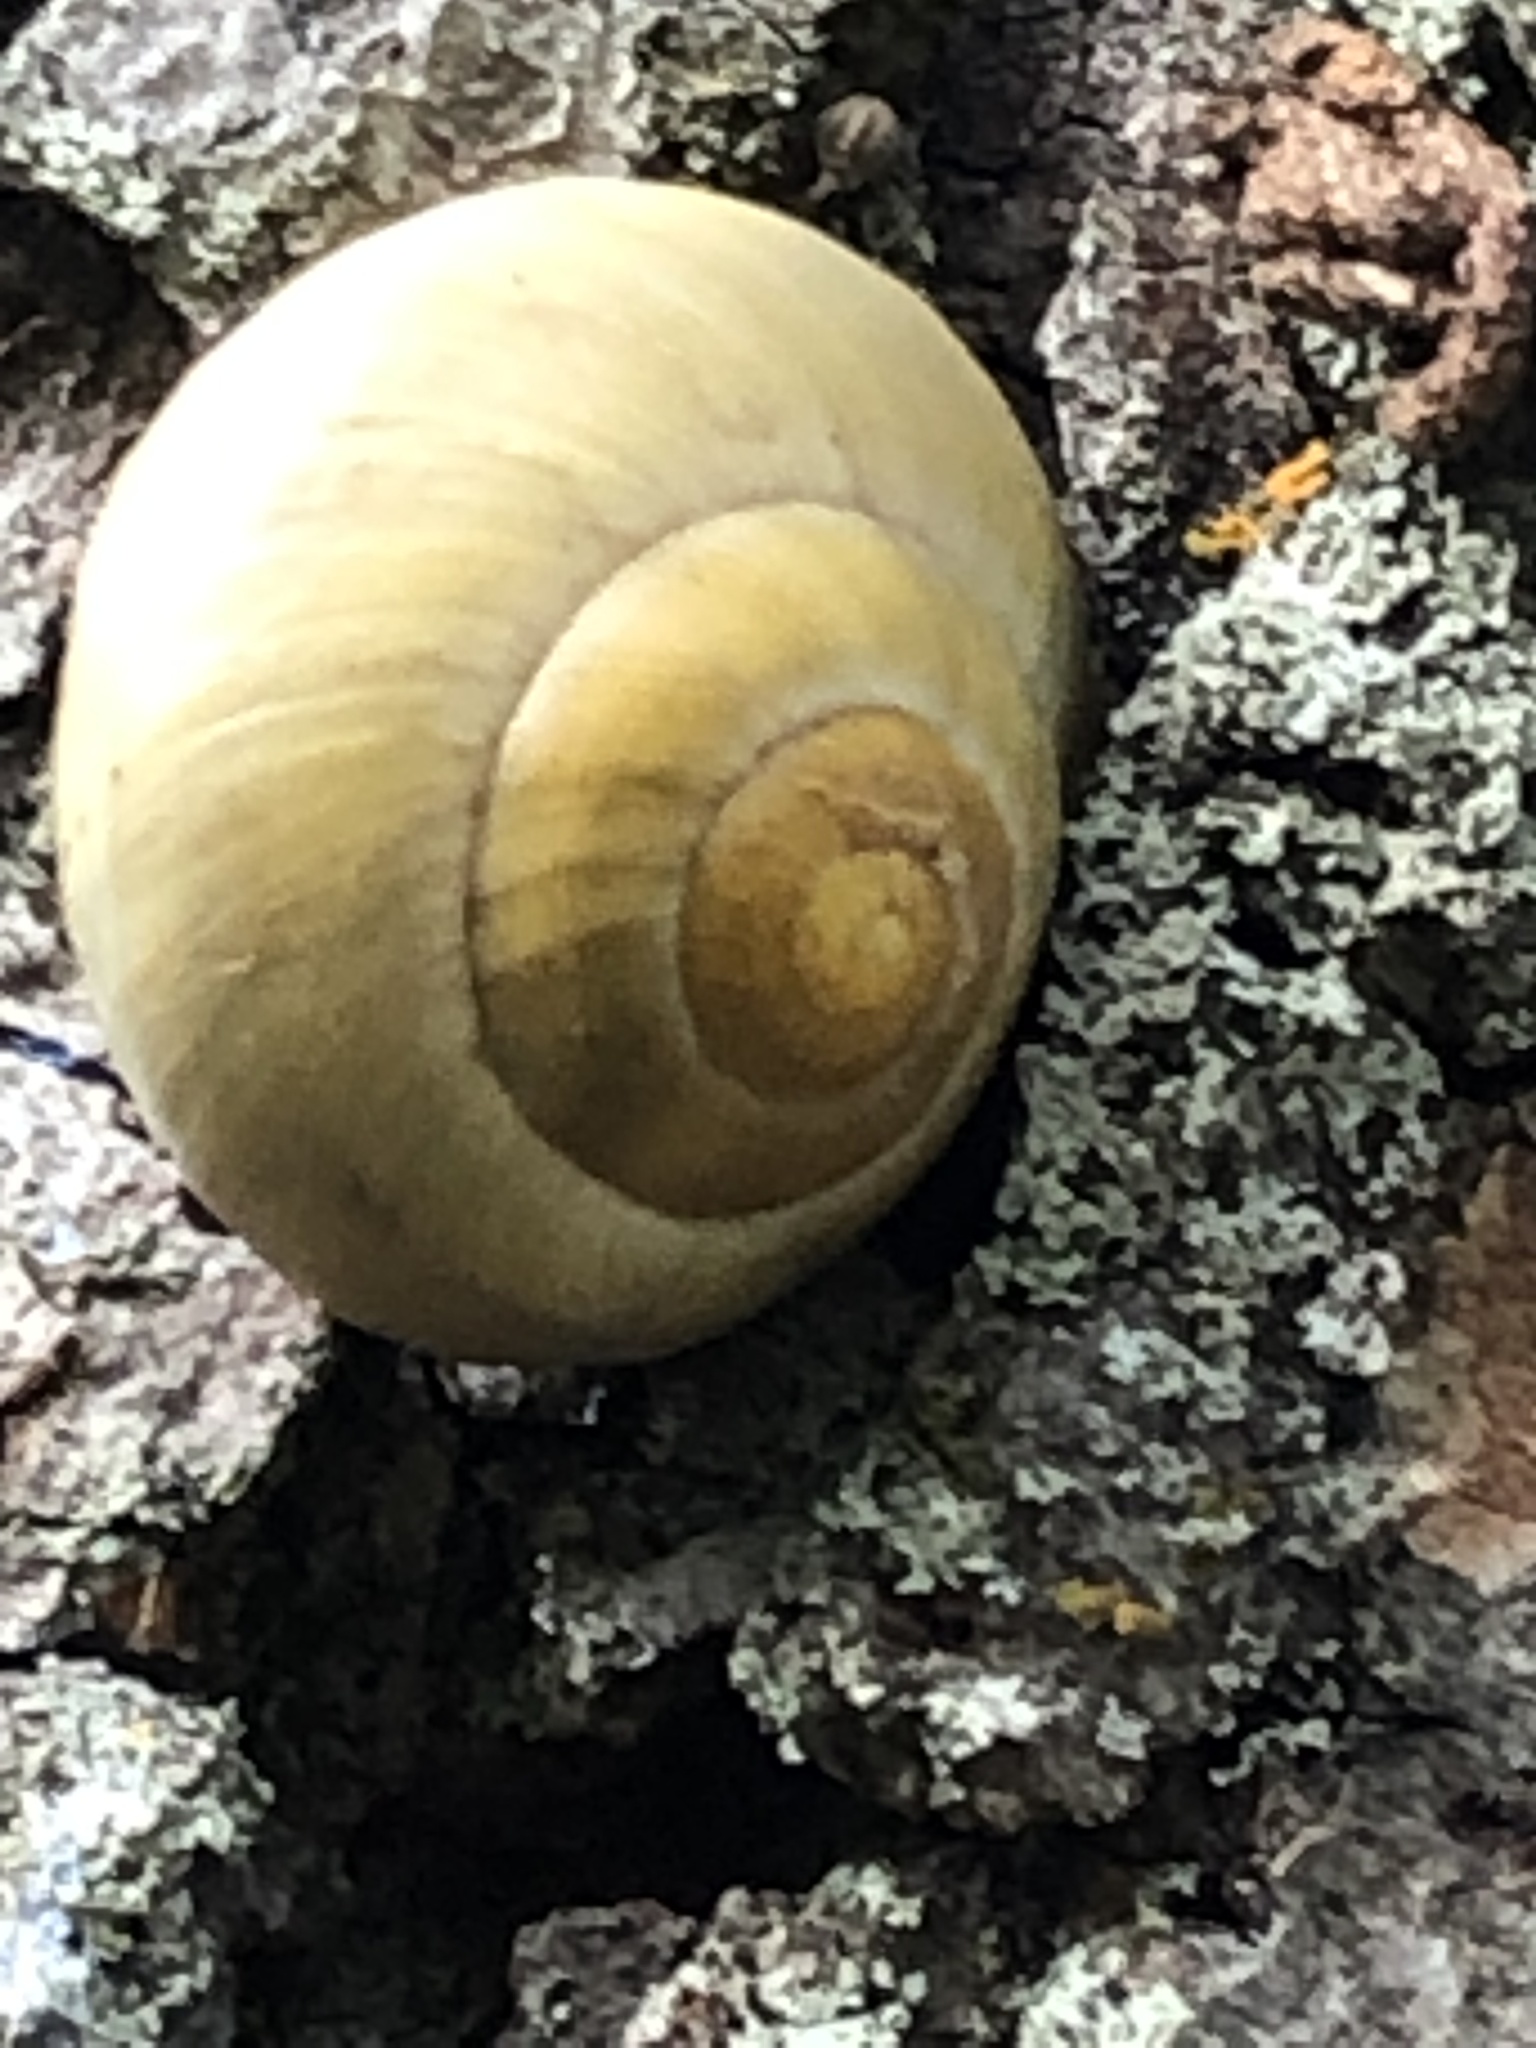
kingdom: Animalia
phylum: Mollusca
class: Gastropoda
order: Stylommatophora
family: Helicidae
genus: Cepaea
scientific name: Cepaea
